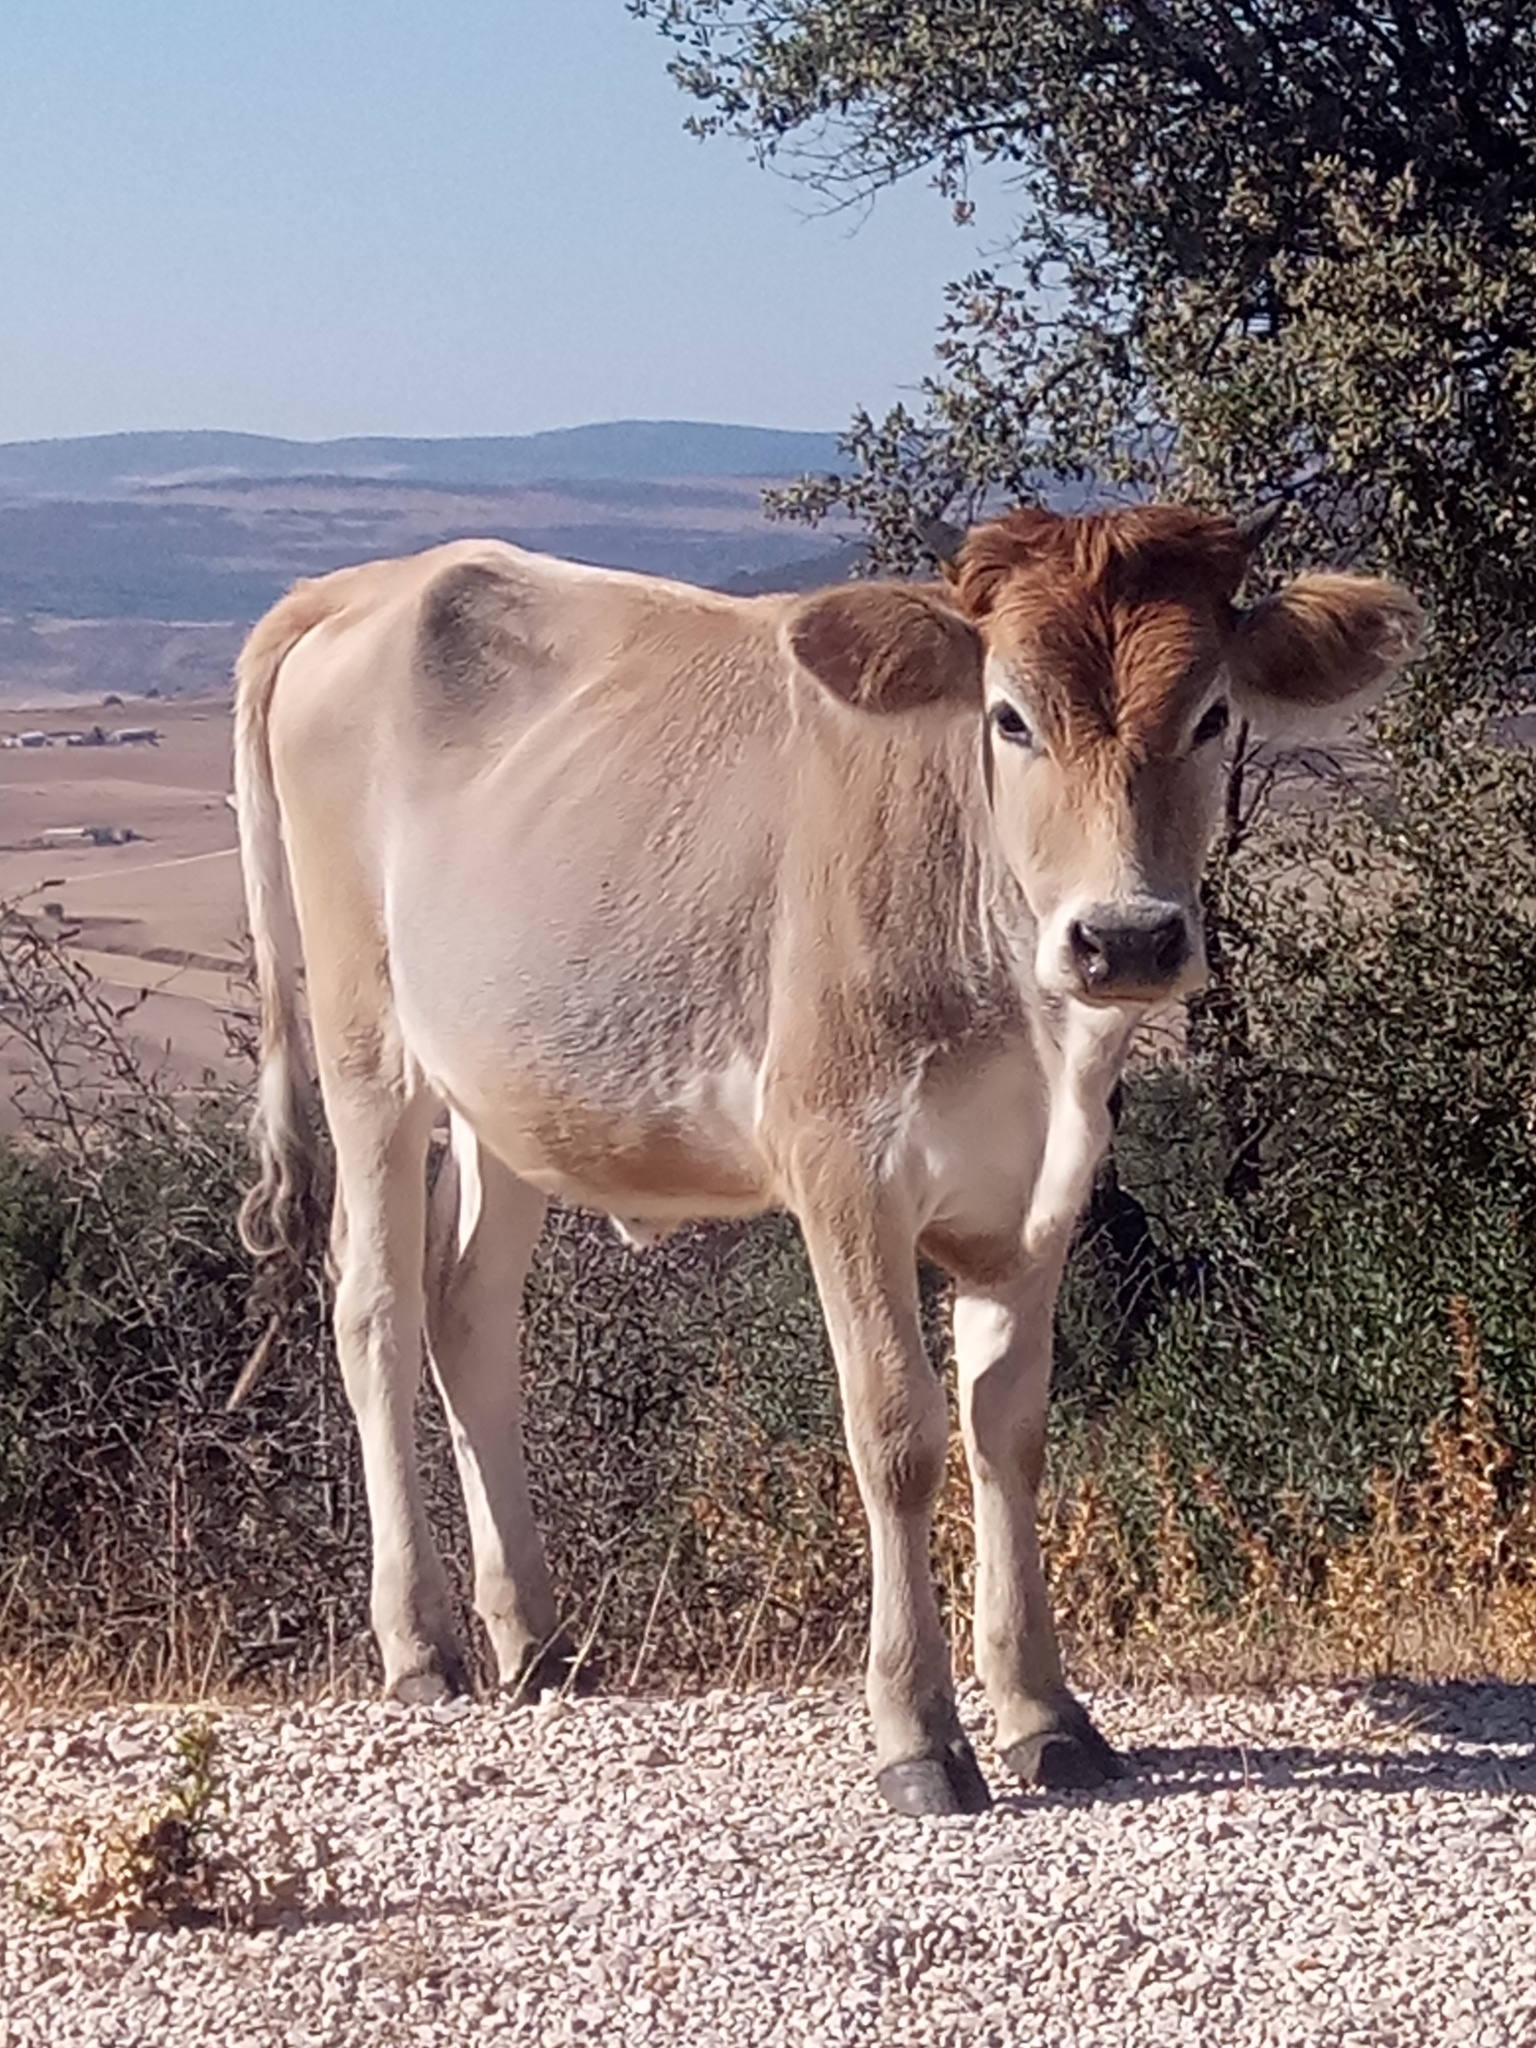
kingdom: Animalia
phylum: Chordata
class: Mammalia
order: Artiodactyla
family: Bovidae
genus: Bos
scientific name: Bos taurus
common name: Domesticated cattle
